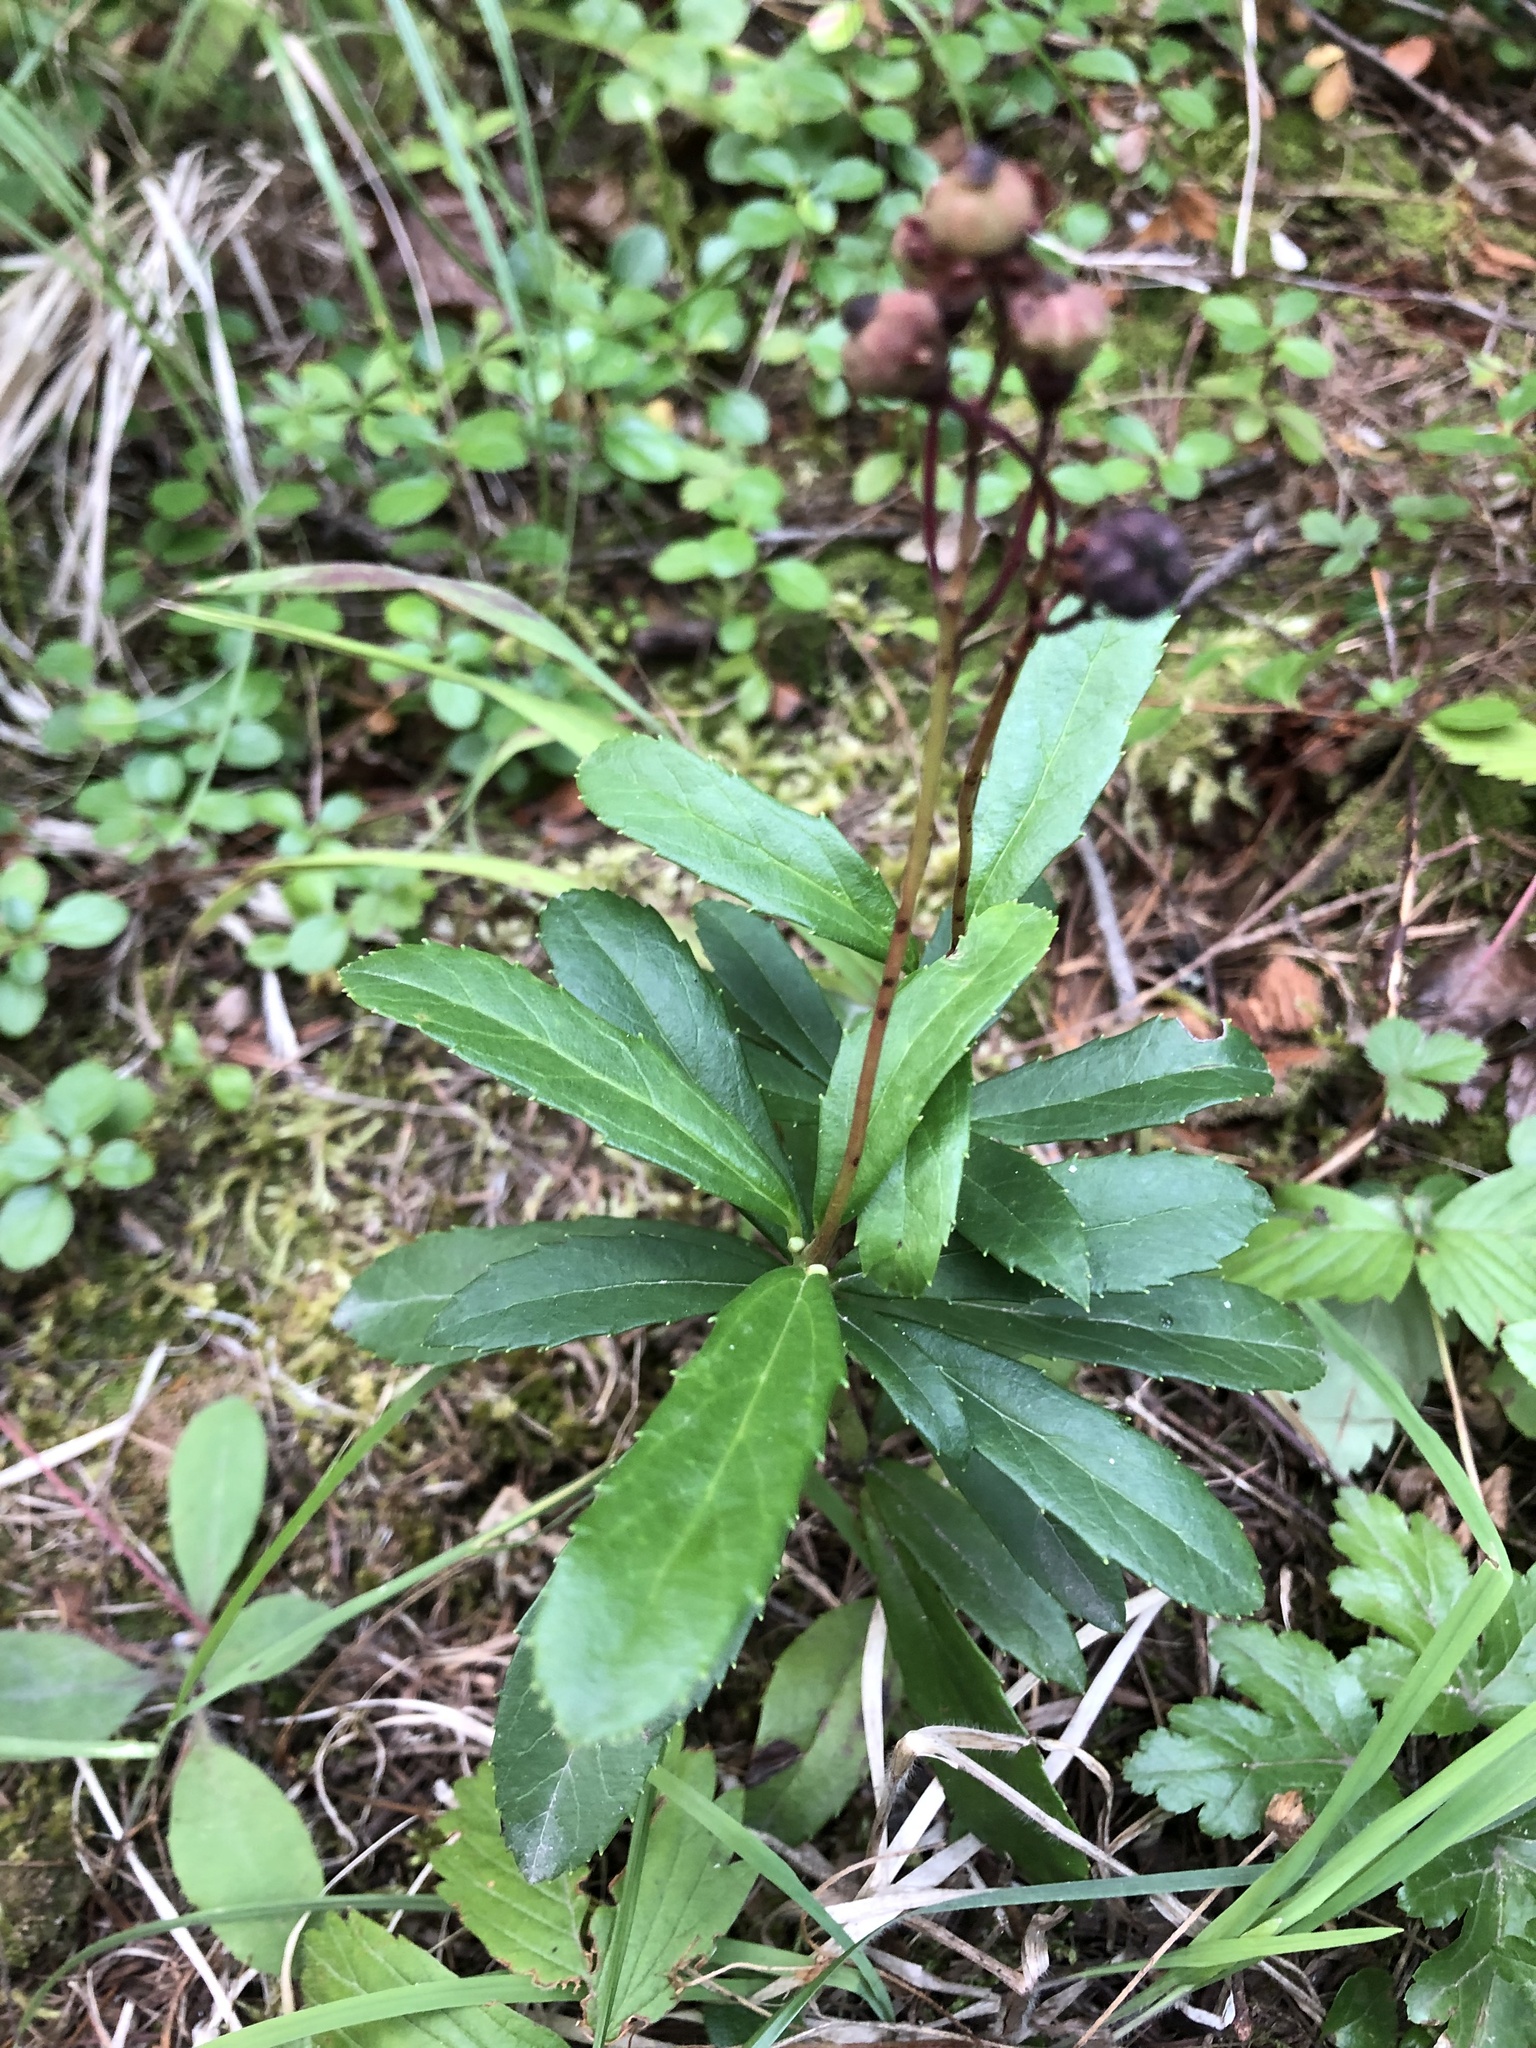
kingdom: Plantae
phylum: Tracheophyta
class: Magnoliopsida
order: Ericales
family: Ericaceae
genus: Chimaphila
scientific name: Chimaphila umbellata
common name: Pipsissewa
